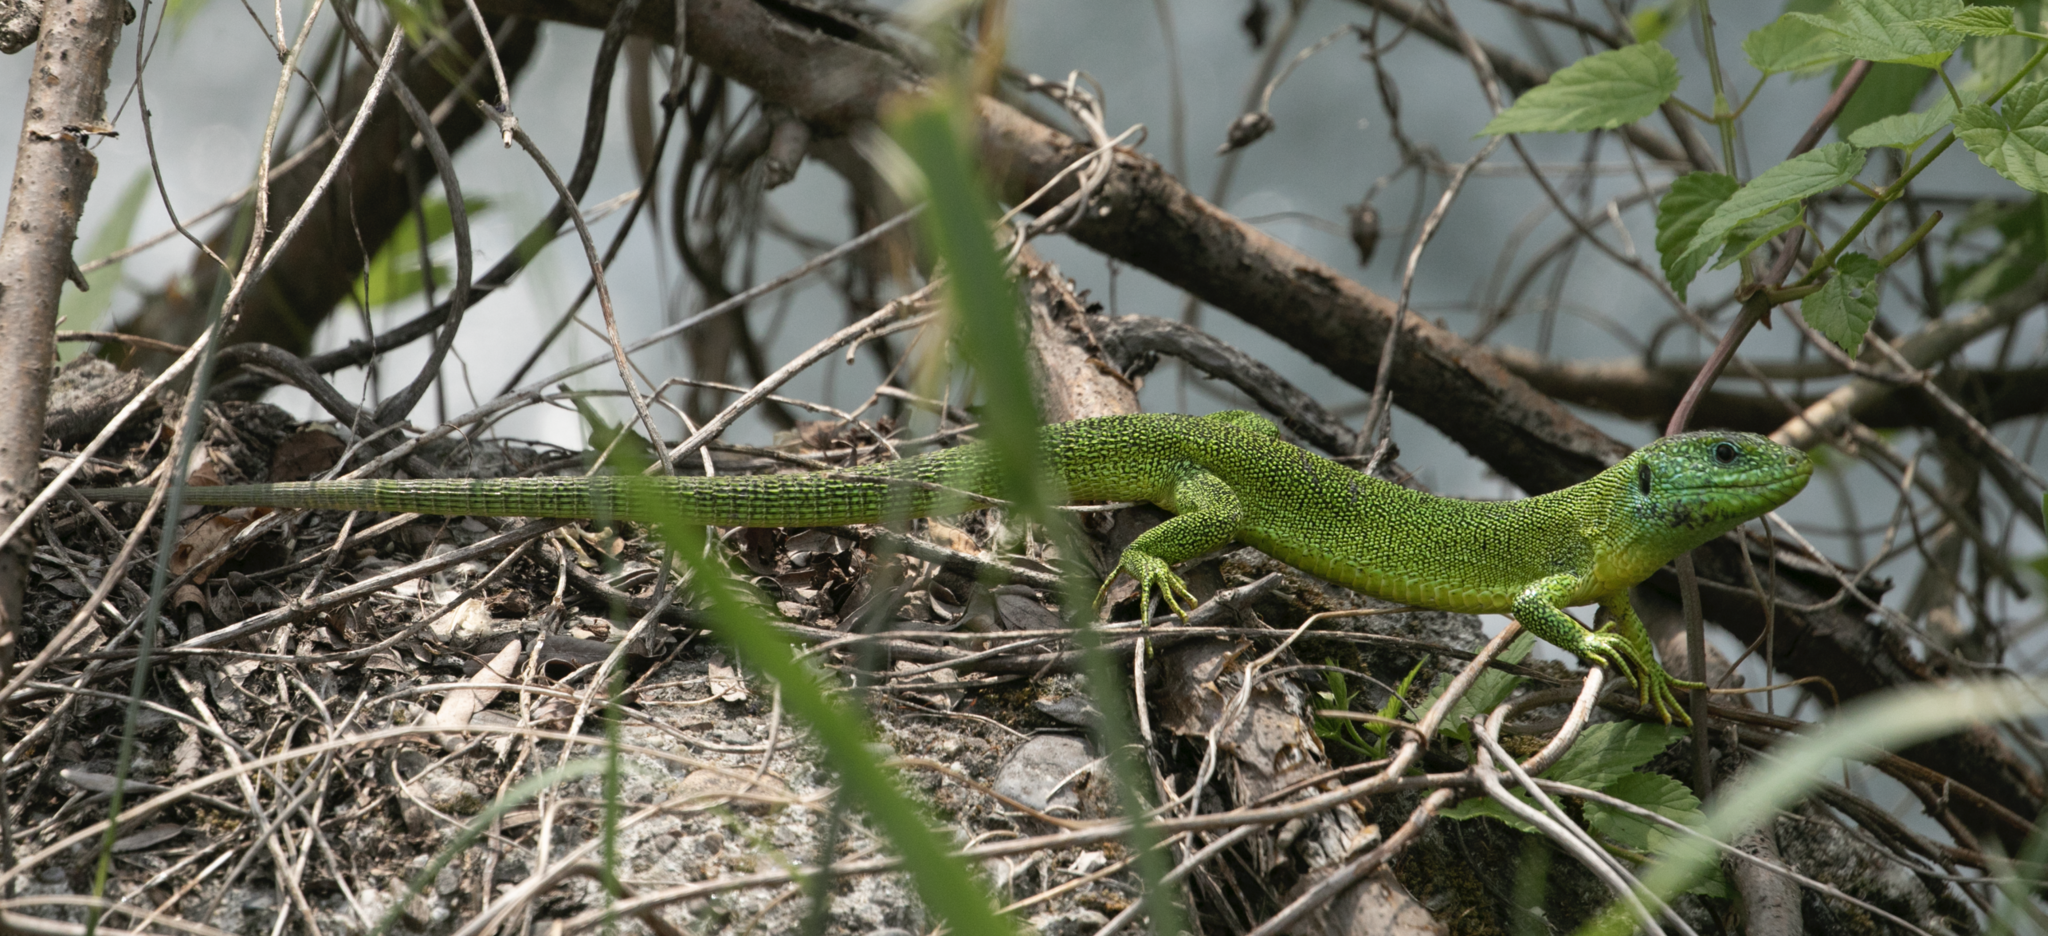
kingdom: Animalia
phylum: Chordata
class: Squamata
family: Lacertidae
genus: Lacerta
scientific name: Lacerta bilineata
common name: Western green lizard
